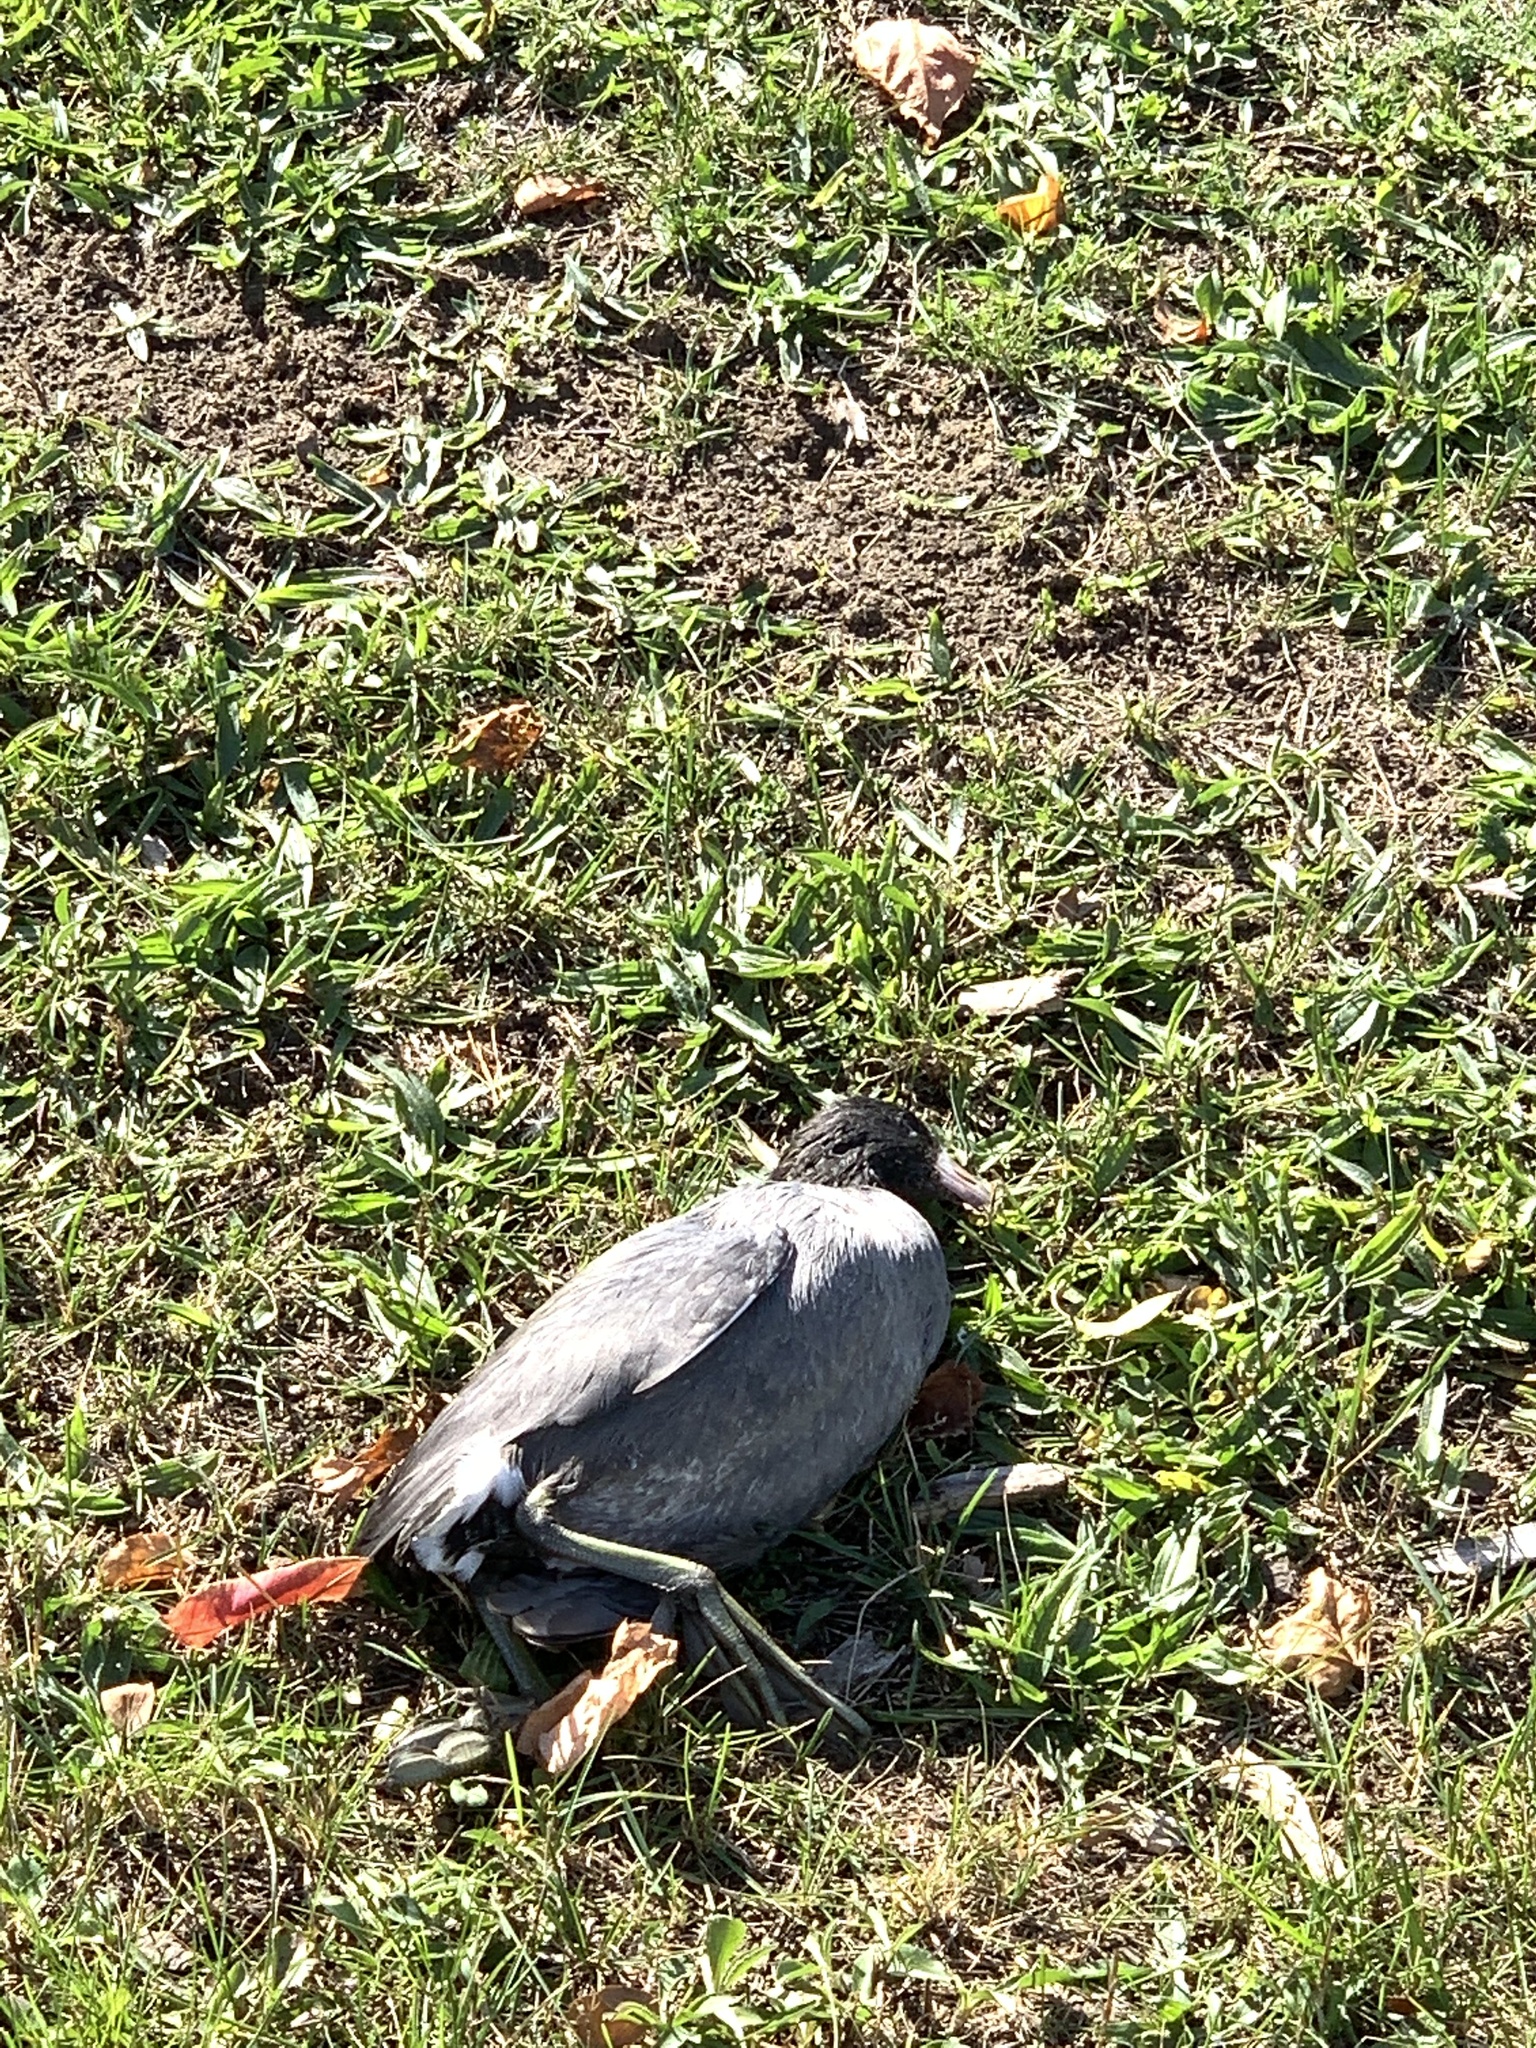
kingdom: Animalia
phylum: Chordata
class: Aves
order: Gruiformes
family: Rallidae
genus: Fulica
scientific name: Fulica americana
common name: American coot
